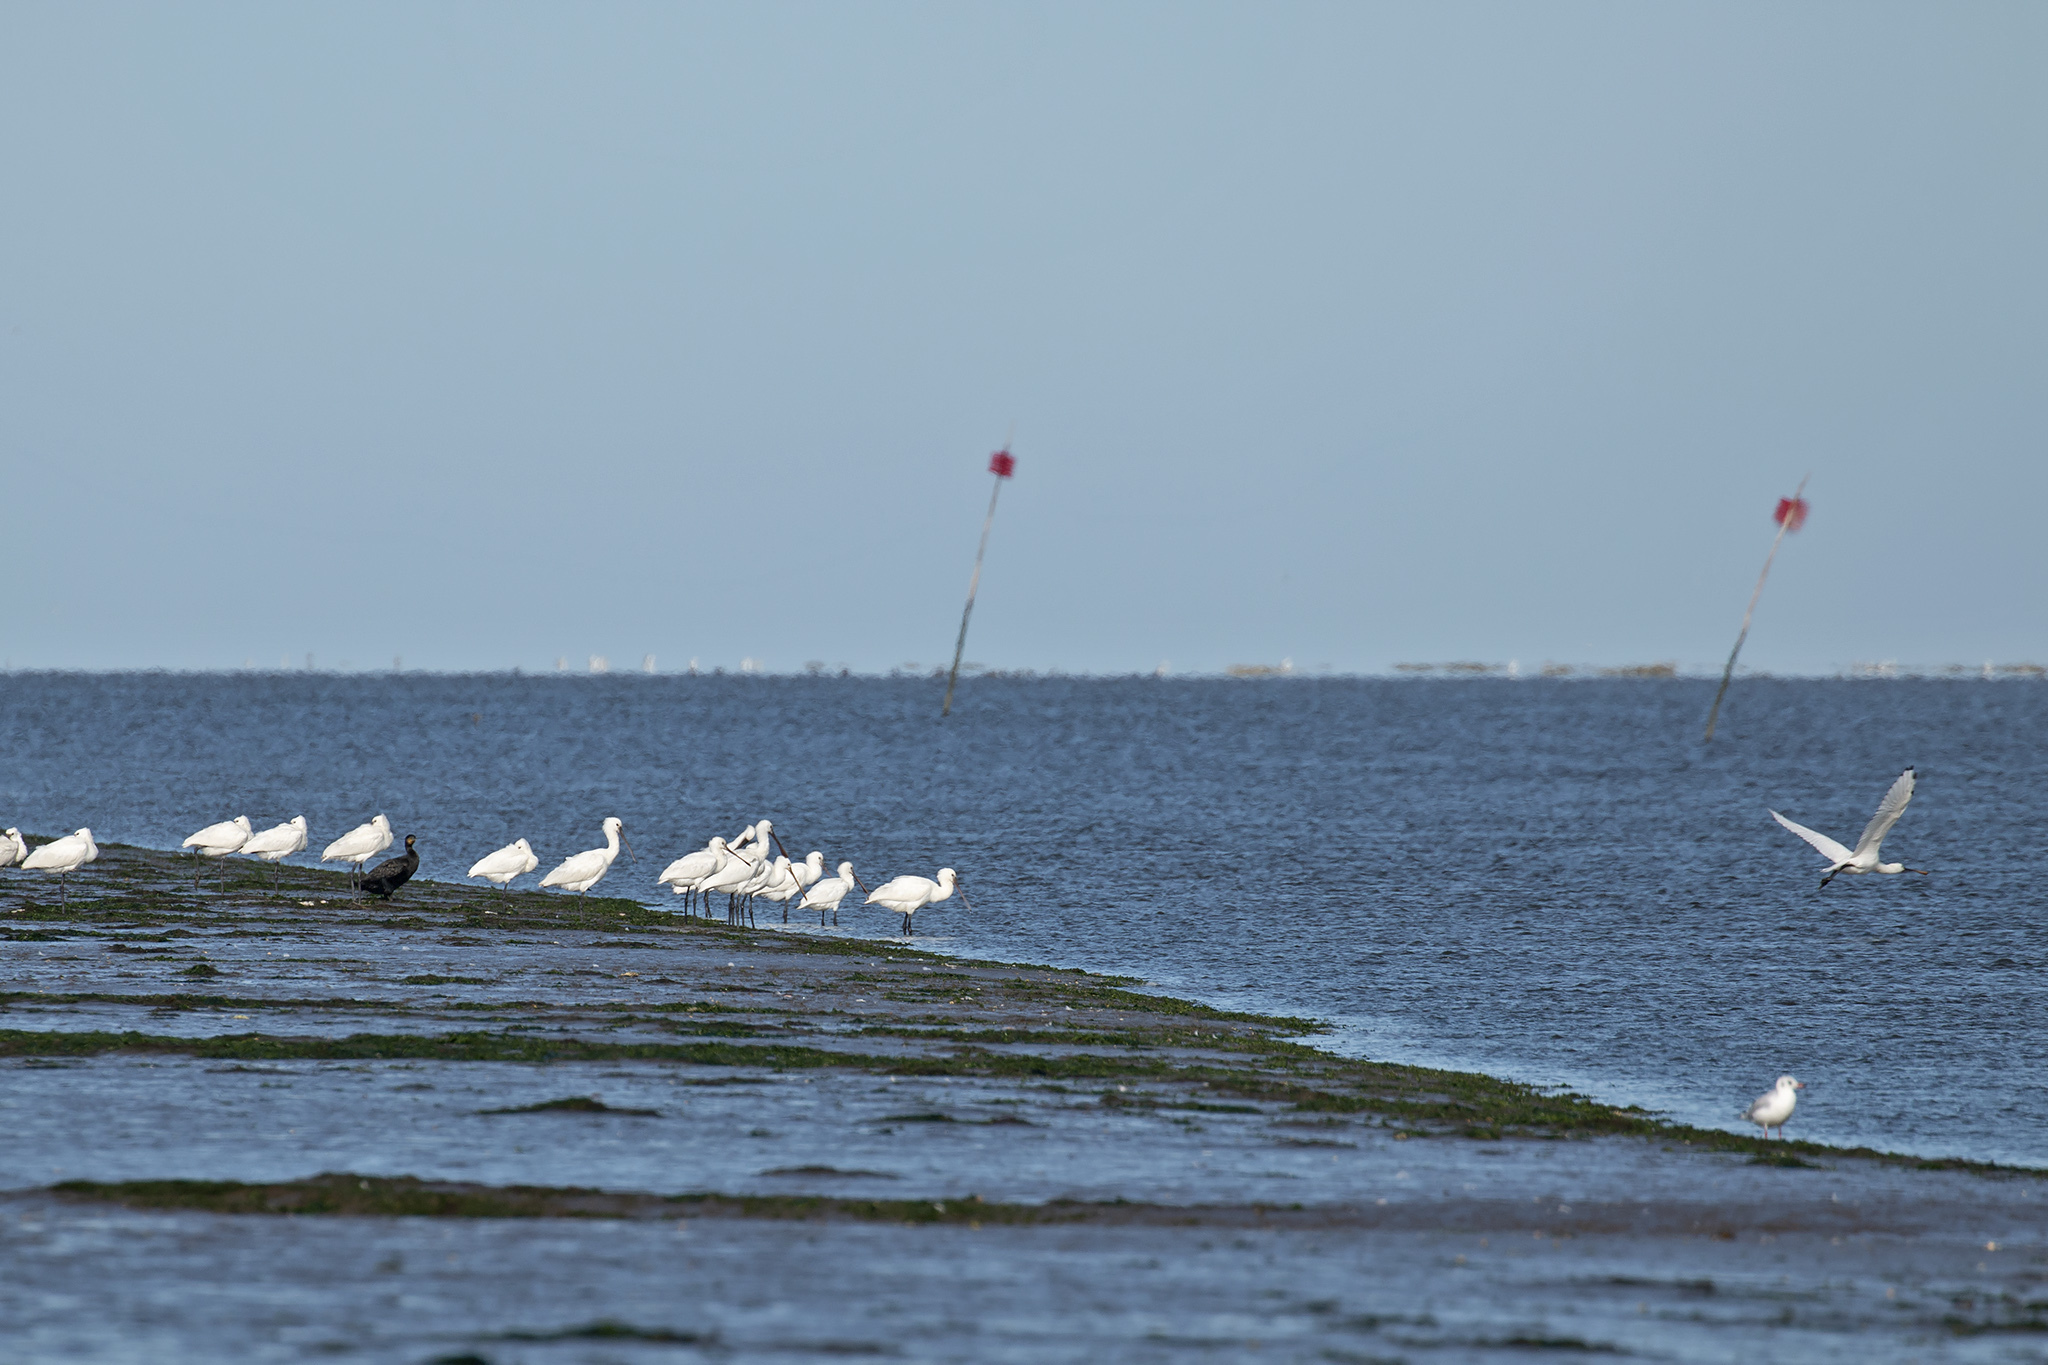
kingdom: Animalia
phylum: Chordata
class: Aves
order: Pelecaniformes
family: Threskiornithidae
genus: Platalea
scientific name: Platalea leucorodia
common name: Eurasian spoonbill
